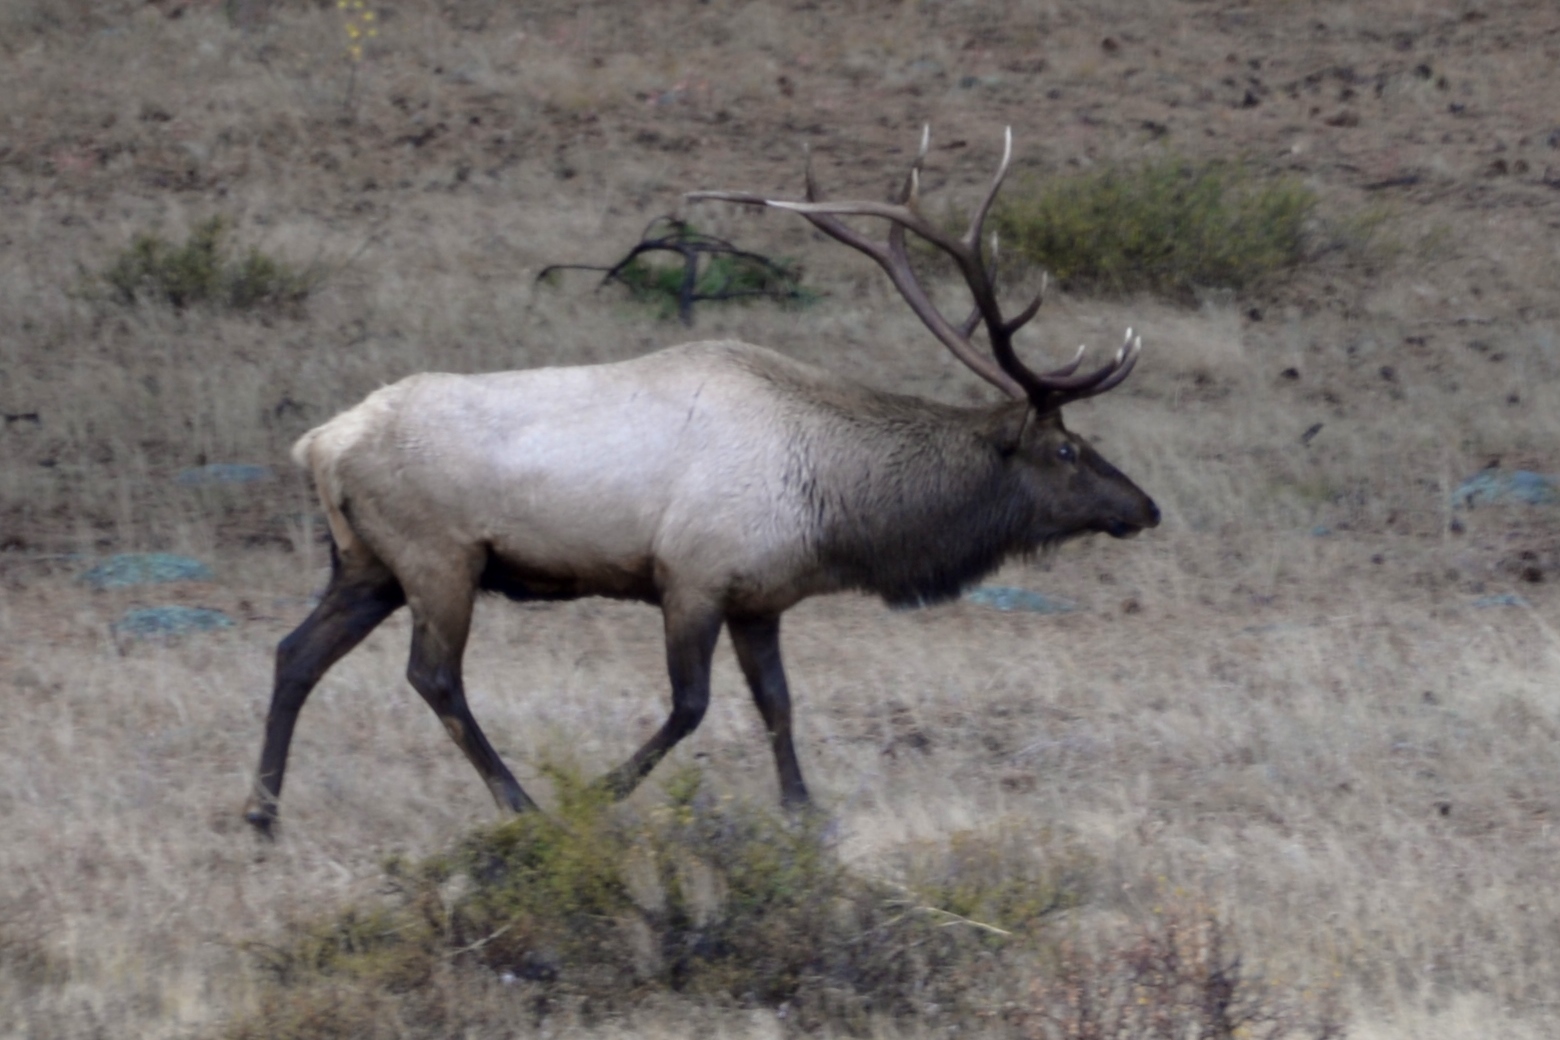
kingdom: Animalia
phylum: Chordata
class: Mammalia
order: Artiodactyla
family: Cervidae
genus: Cervus
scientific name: Cervus elaphus
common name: Red deer
